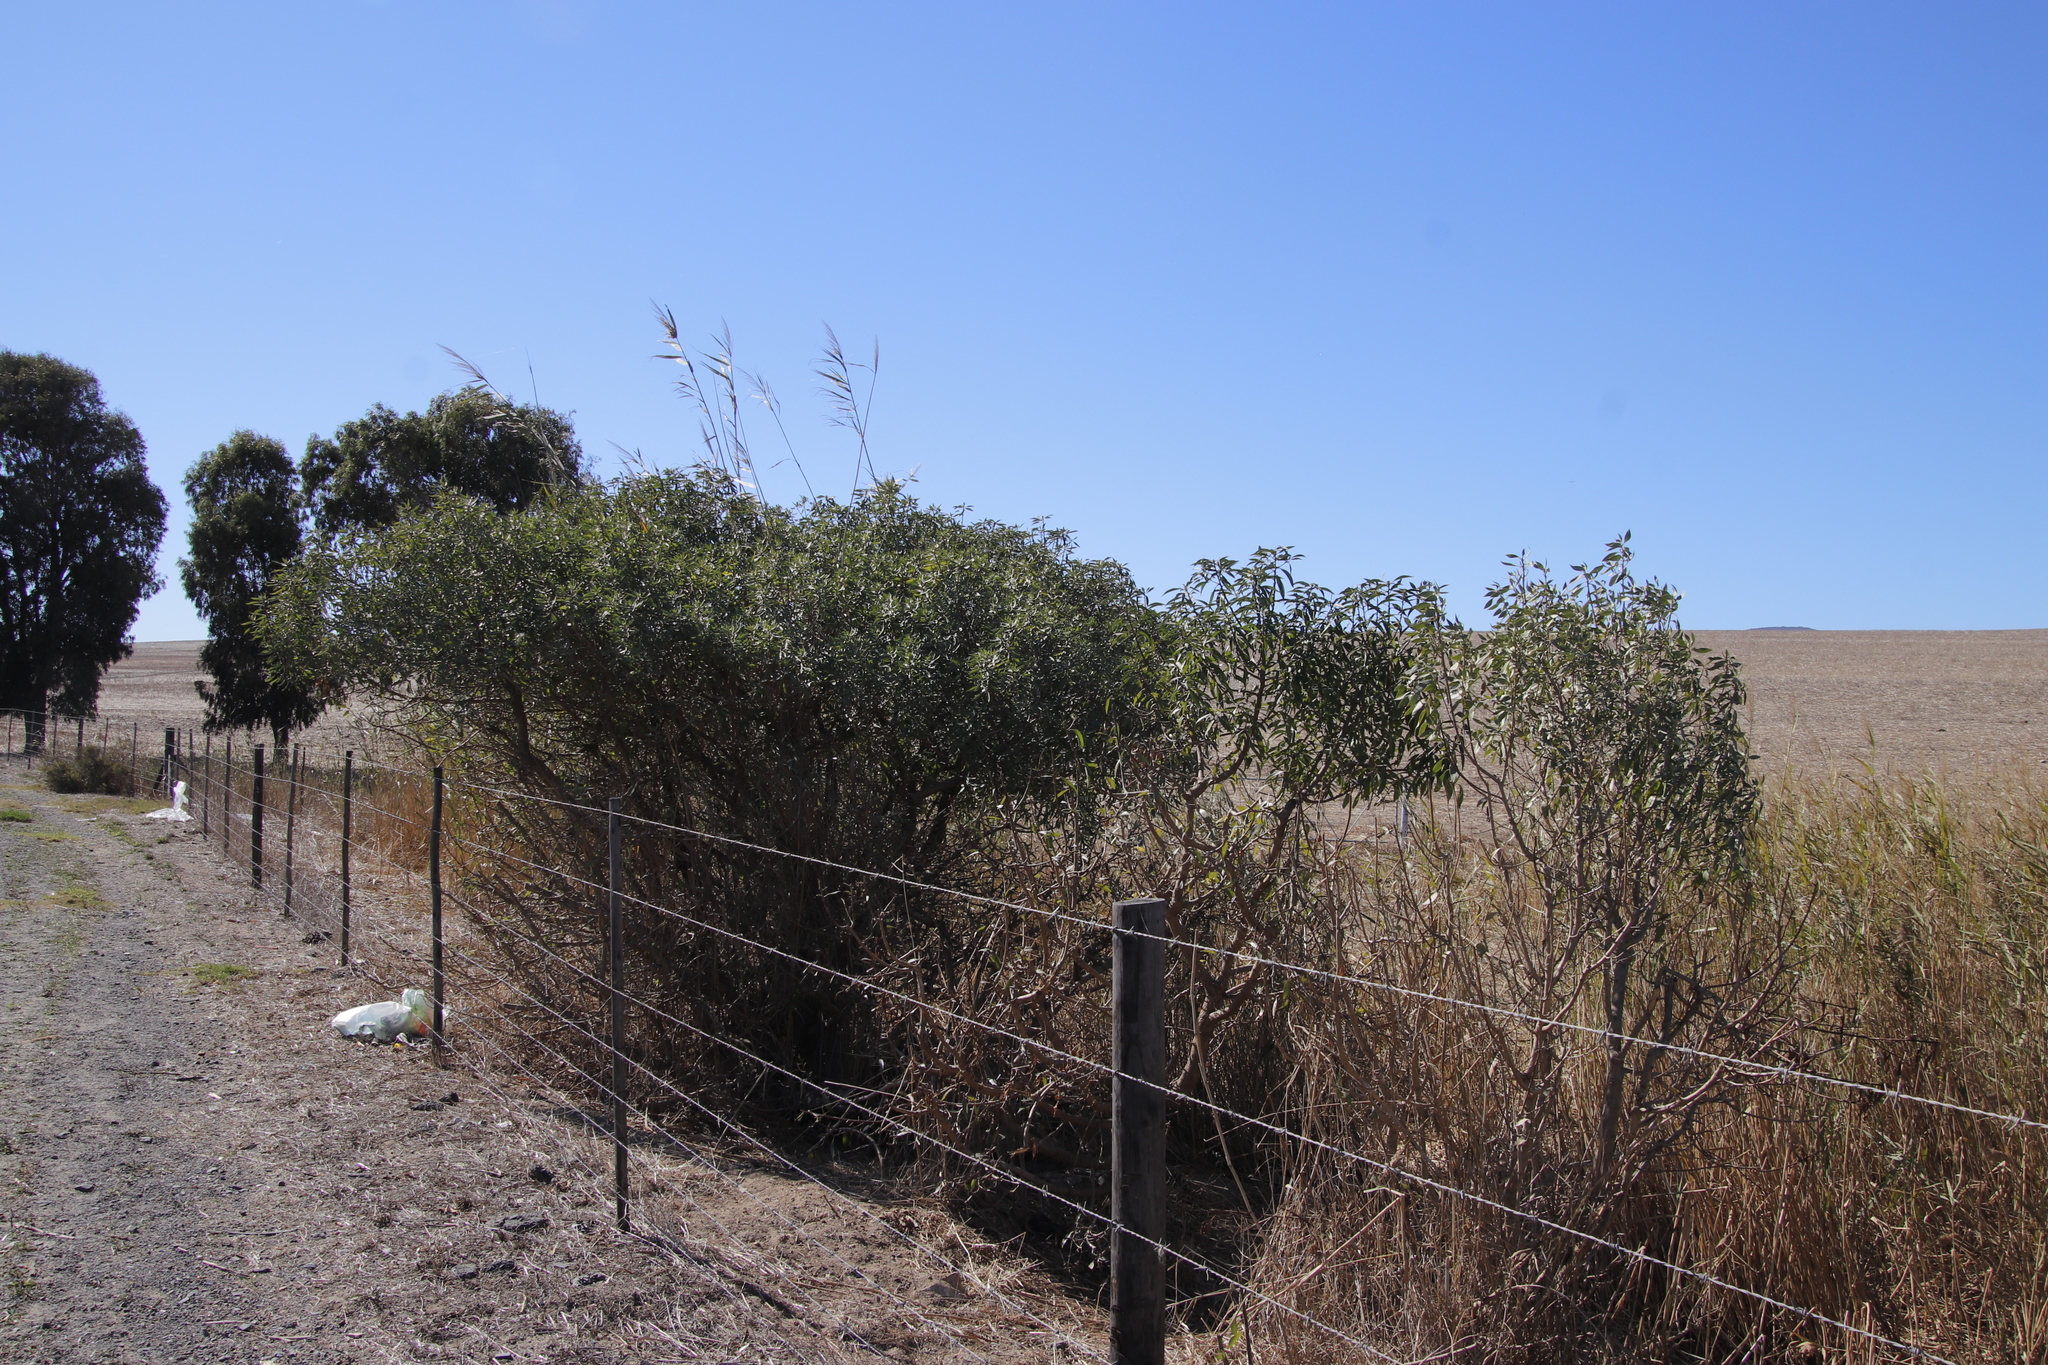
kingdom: Plantae
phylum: Tracheophyta
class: Magnoliopsida
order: Lamiales
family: Scrophulariaceae
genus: Myoporum
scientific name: Myoporum insulare
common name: Common boobialla
